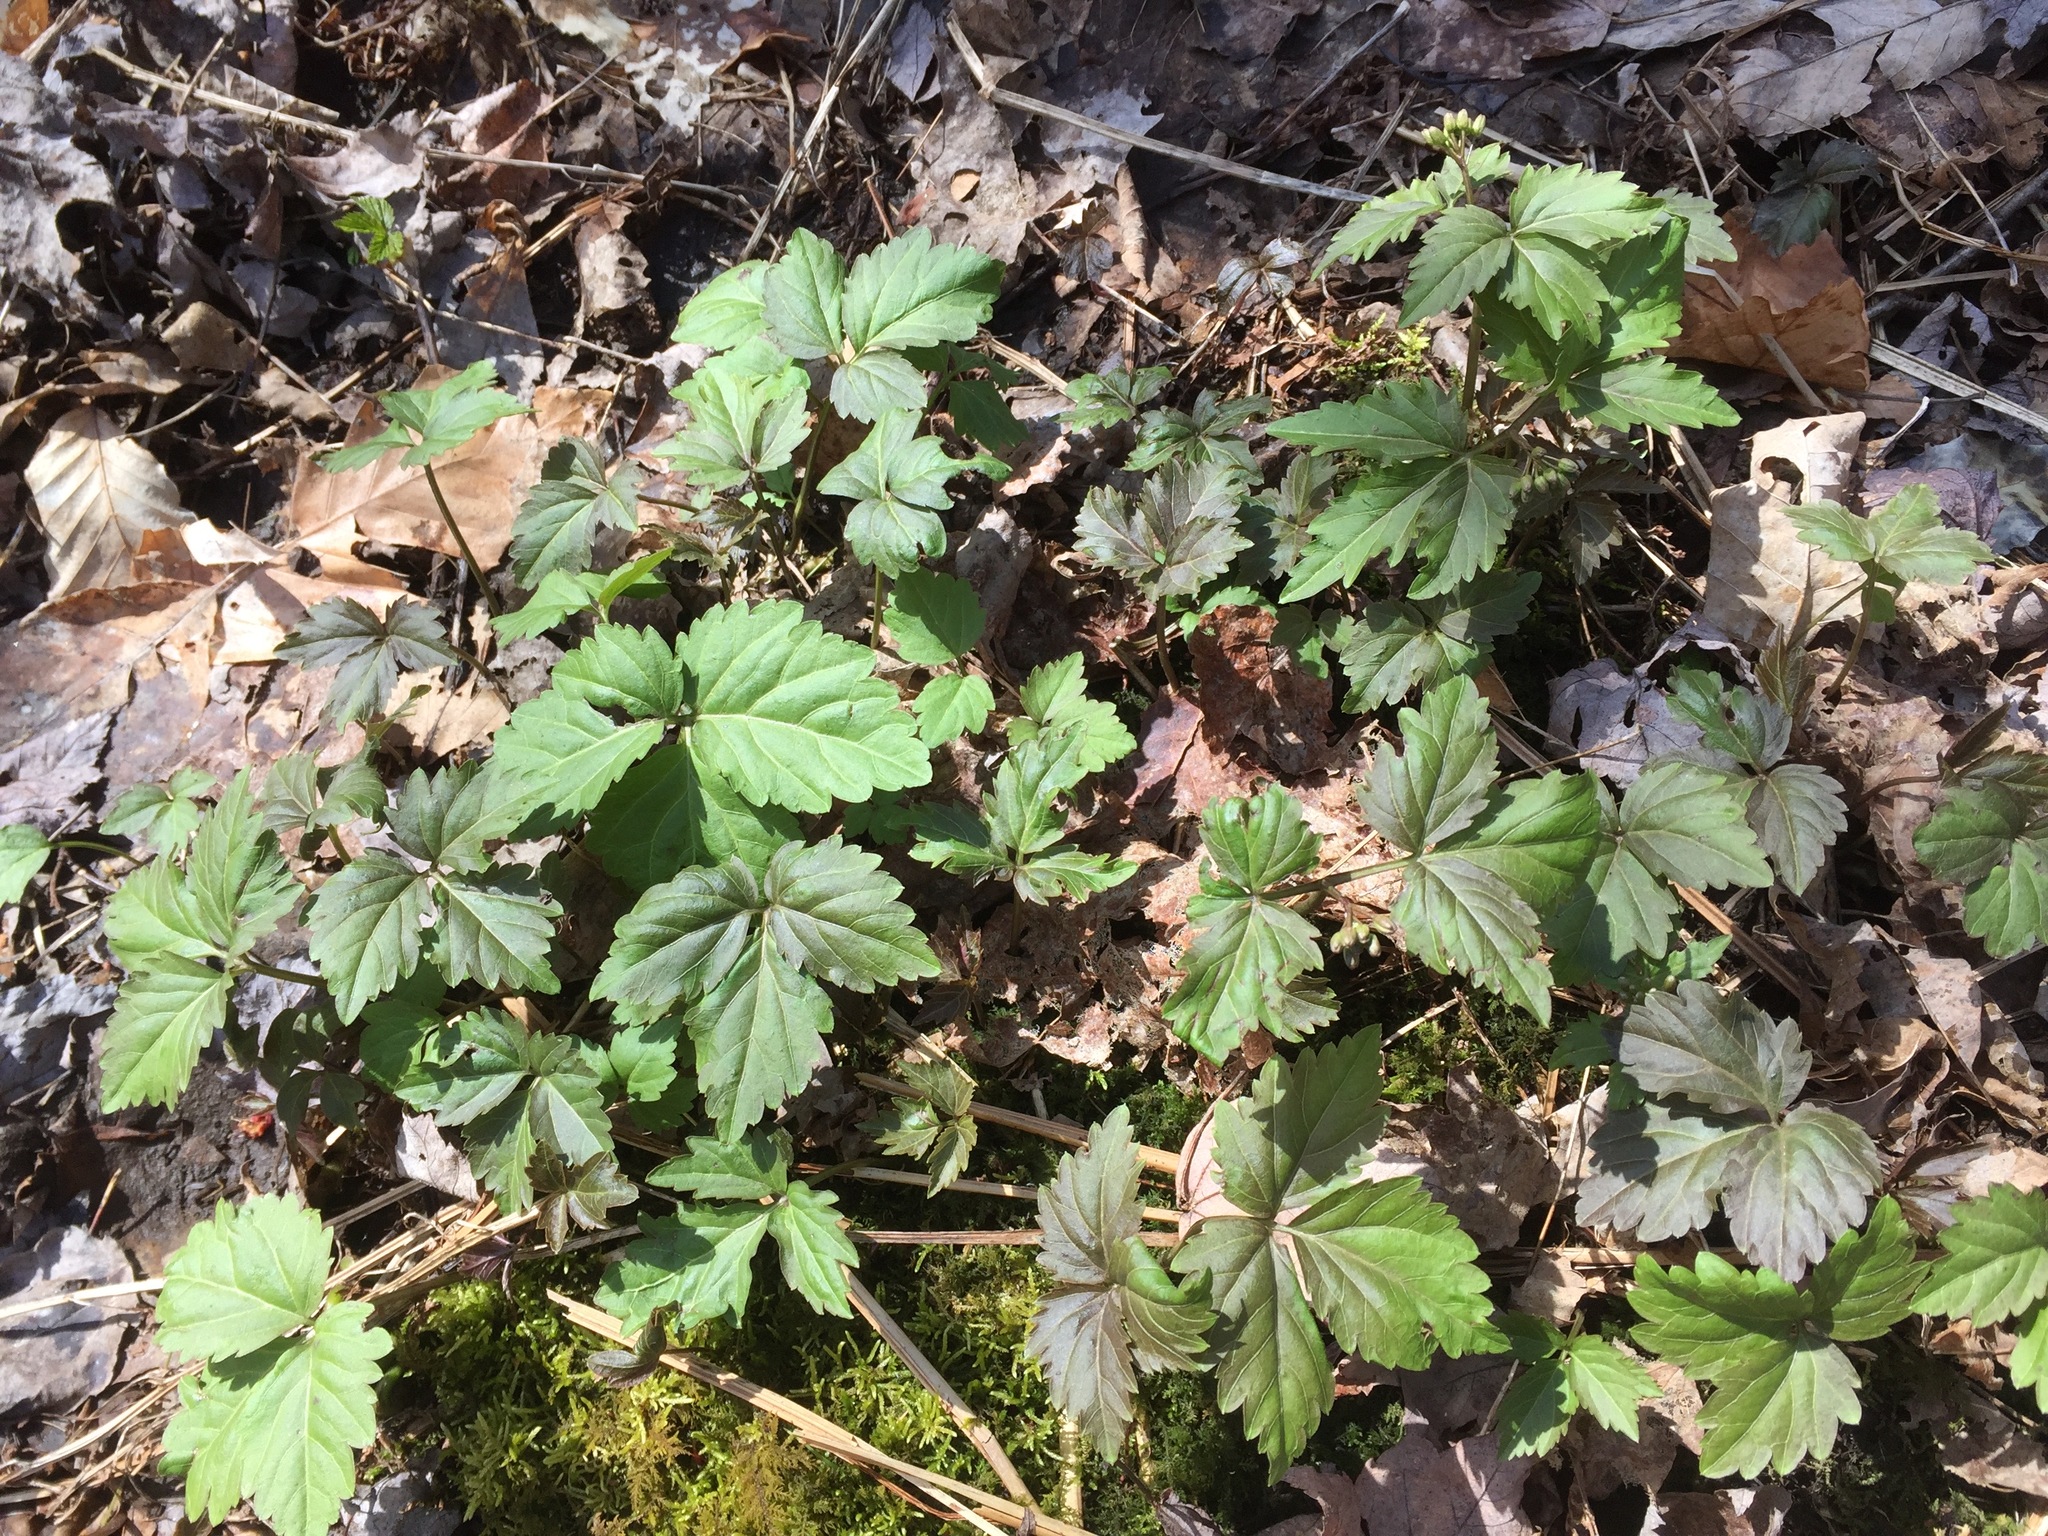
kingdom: Plantae
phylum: Tracheophyta
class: Magnoliopsida
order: Brassicales
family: Brassicaceae
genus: Cardamine
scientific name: Cardamine diphylla
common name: Broad-leaved toothwort
